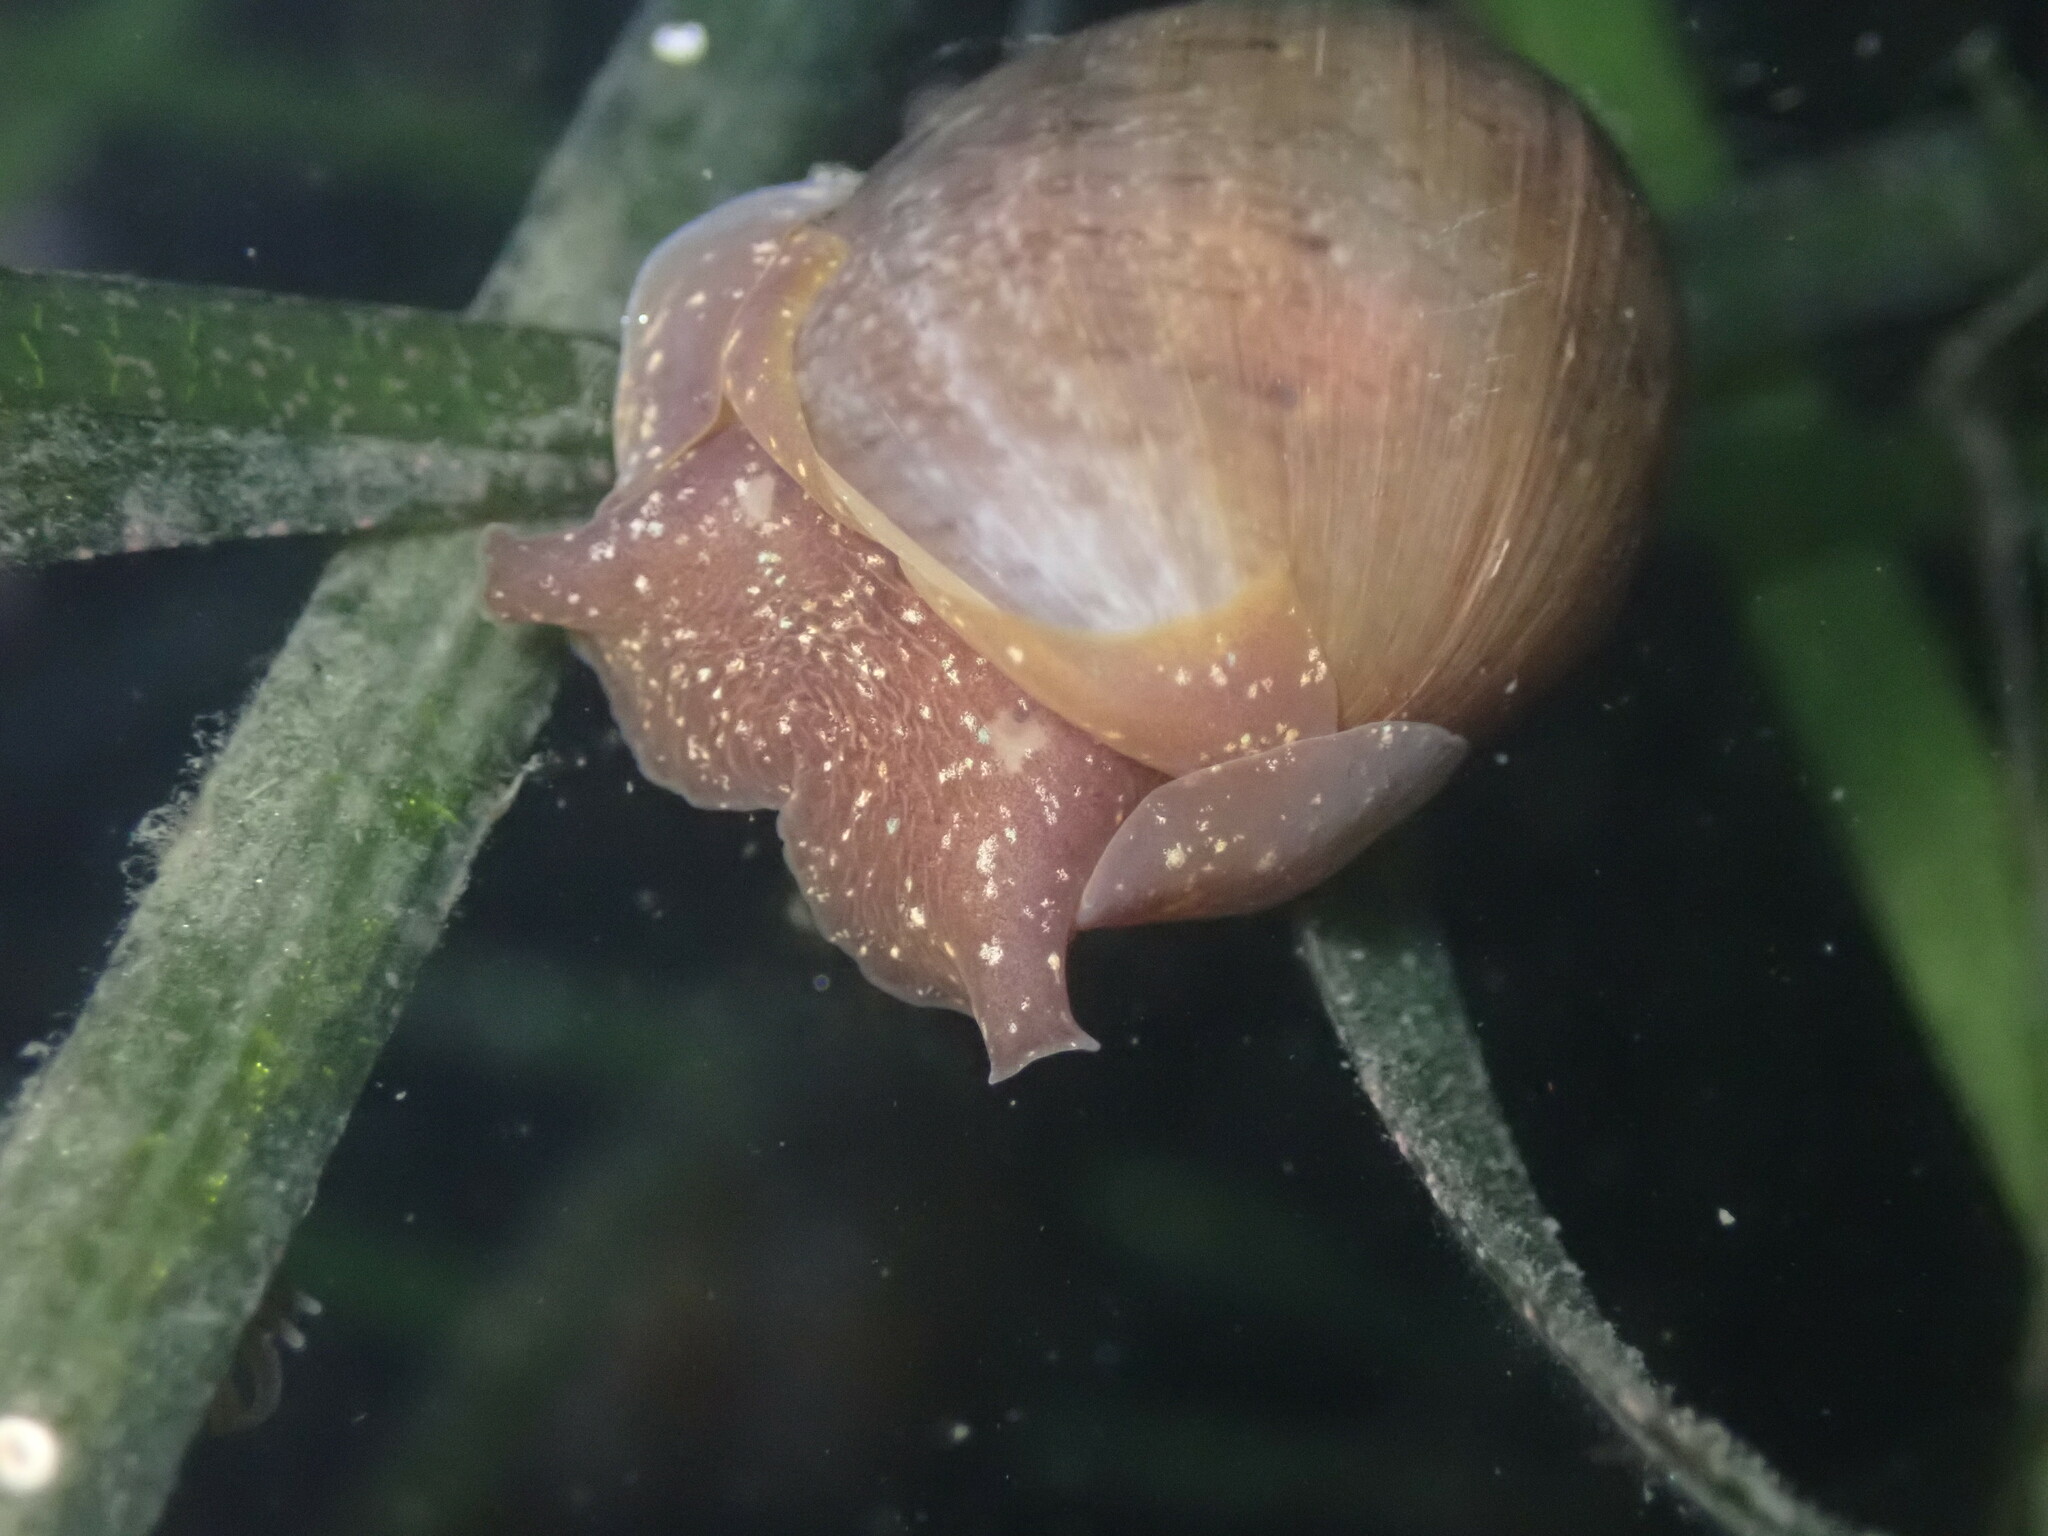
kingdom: Animalia
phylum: Mollusca
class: Gastropoda
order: Cephalaspidea
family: Bullidae
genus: Bulla
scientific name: Bulla gouldiana
